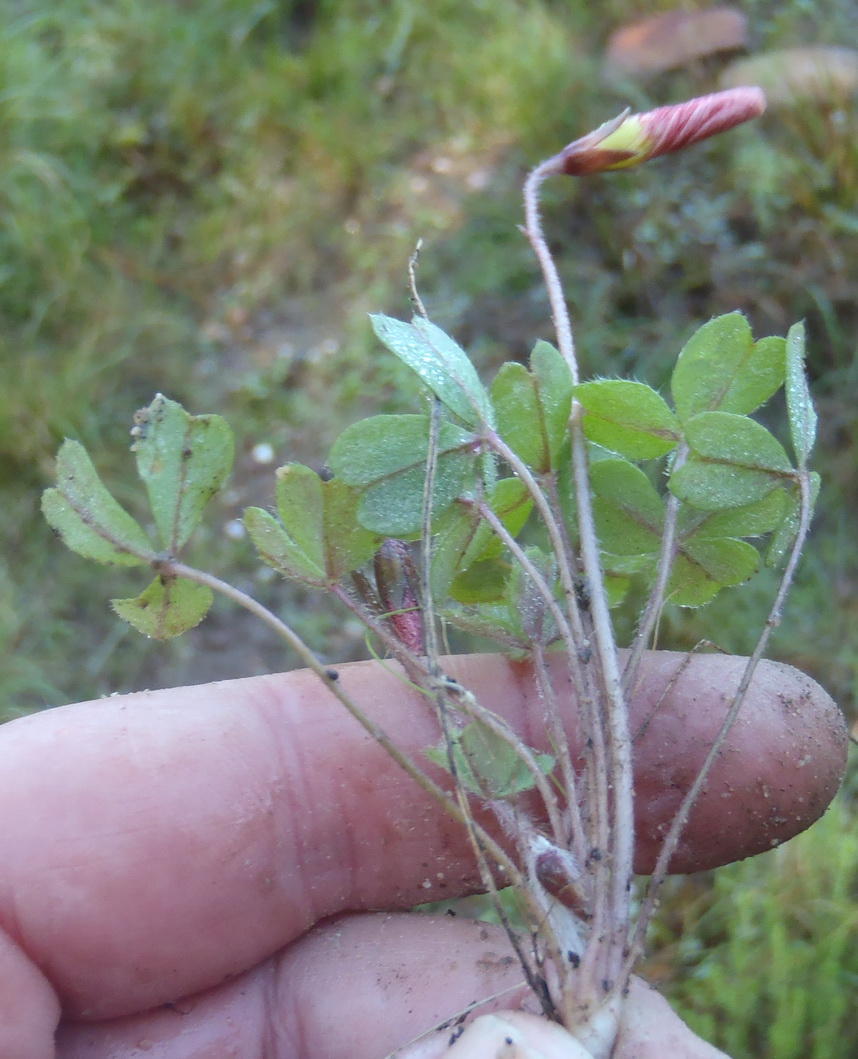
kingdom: Plantae
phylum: Tracheophyta
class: Magnoliopsida
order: Oxalidales
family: Oxalidaceae
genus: Oxalis
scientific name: Oxalis obtusa
